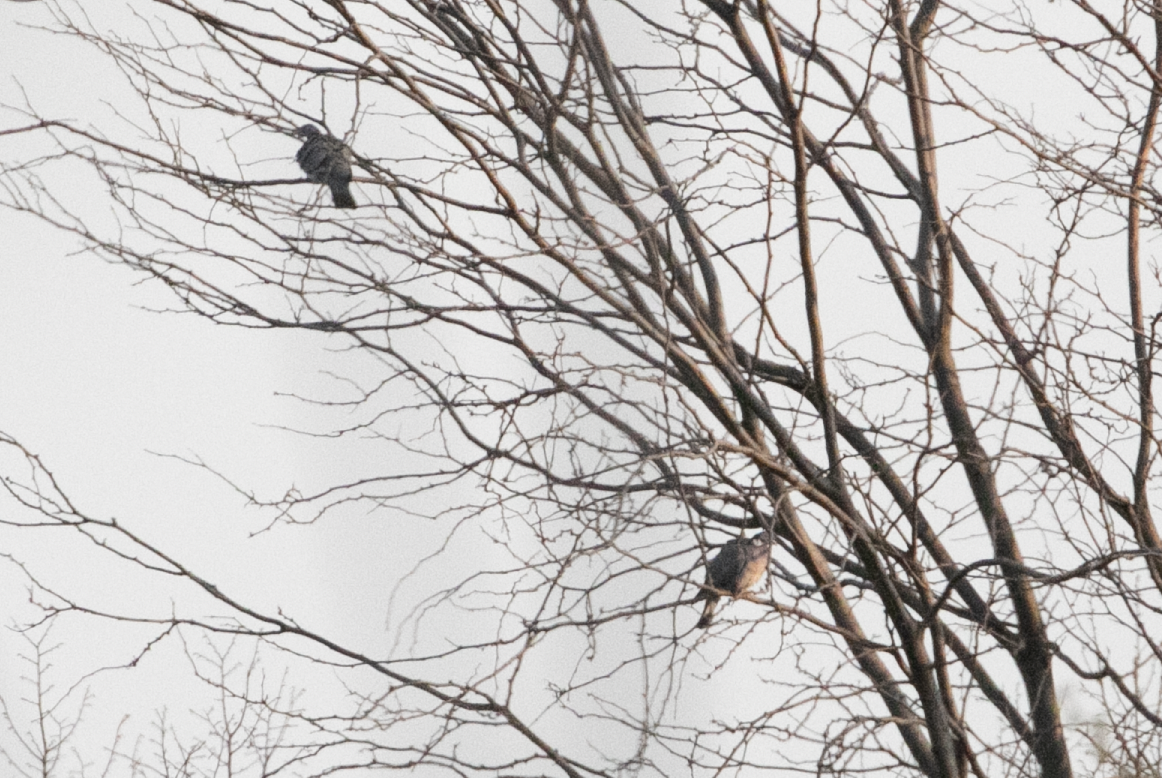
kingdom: Animalia
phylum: Chordata
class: Aves
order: Columbiformes
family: Columbidae
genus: Columba
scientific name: Columba palumbus
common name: Common wood pigeon
